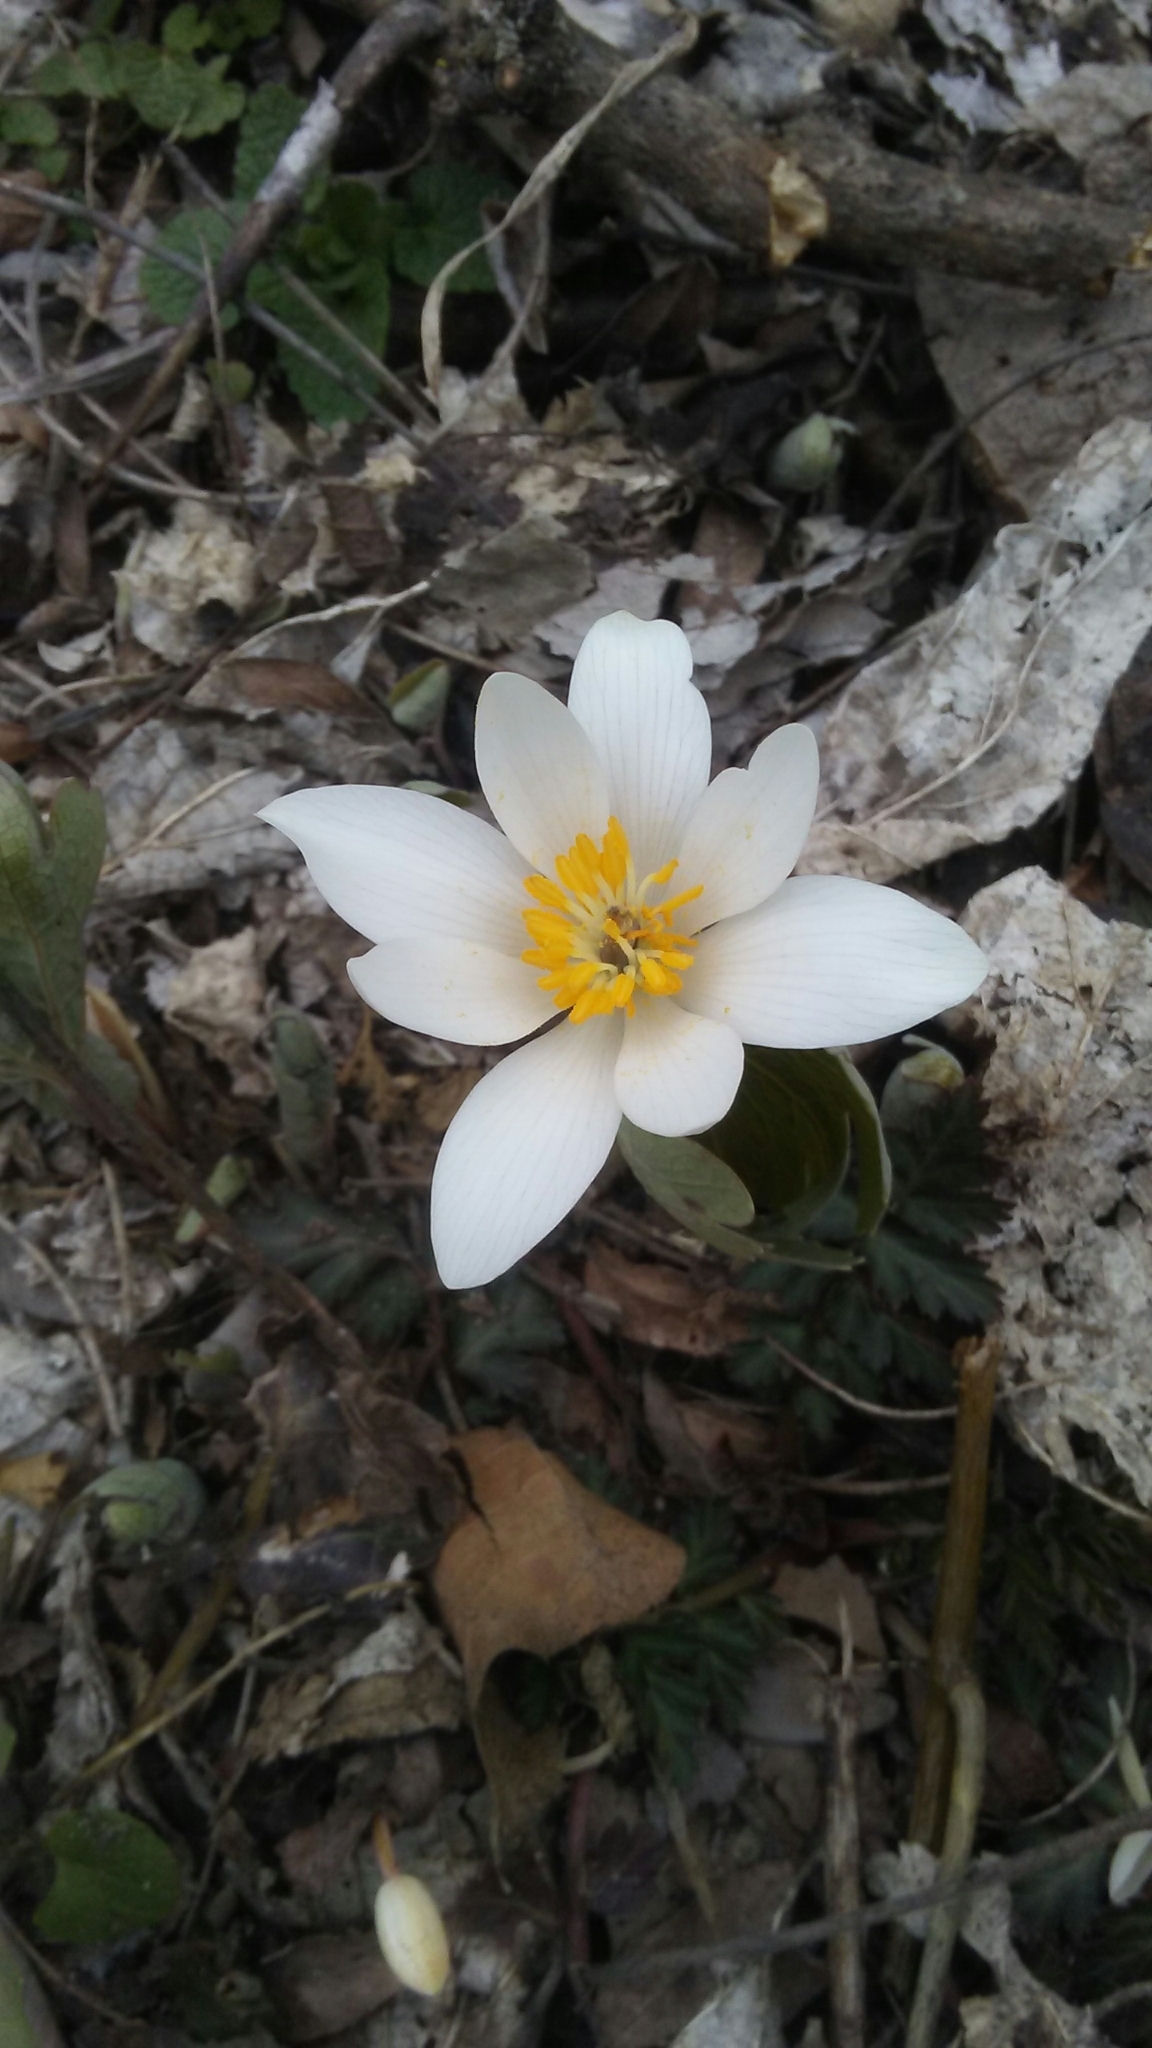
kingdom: Plantae
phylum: Tracheophyta
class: Magnoliopsida
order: Ranunculales
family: Papaveraceae
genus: Sanguinaria
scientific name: Sanguinaria canadensis
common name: Bloodroot
